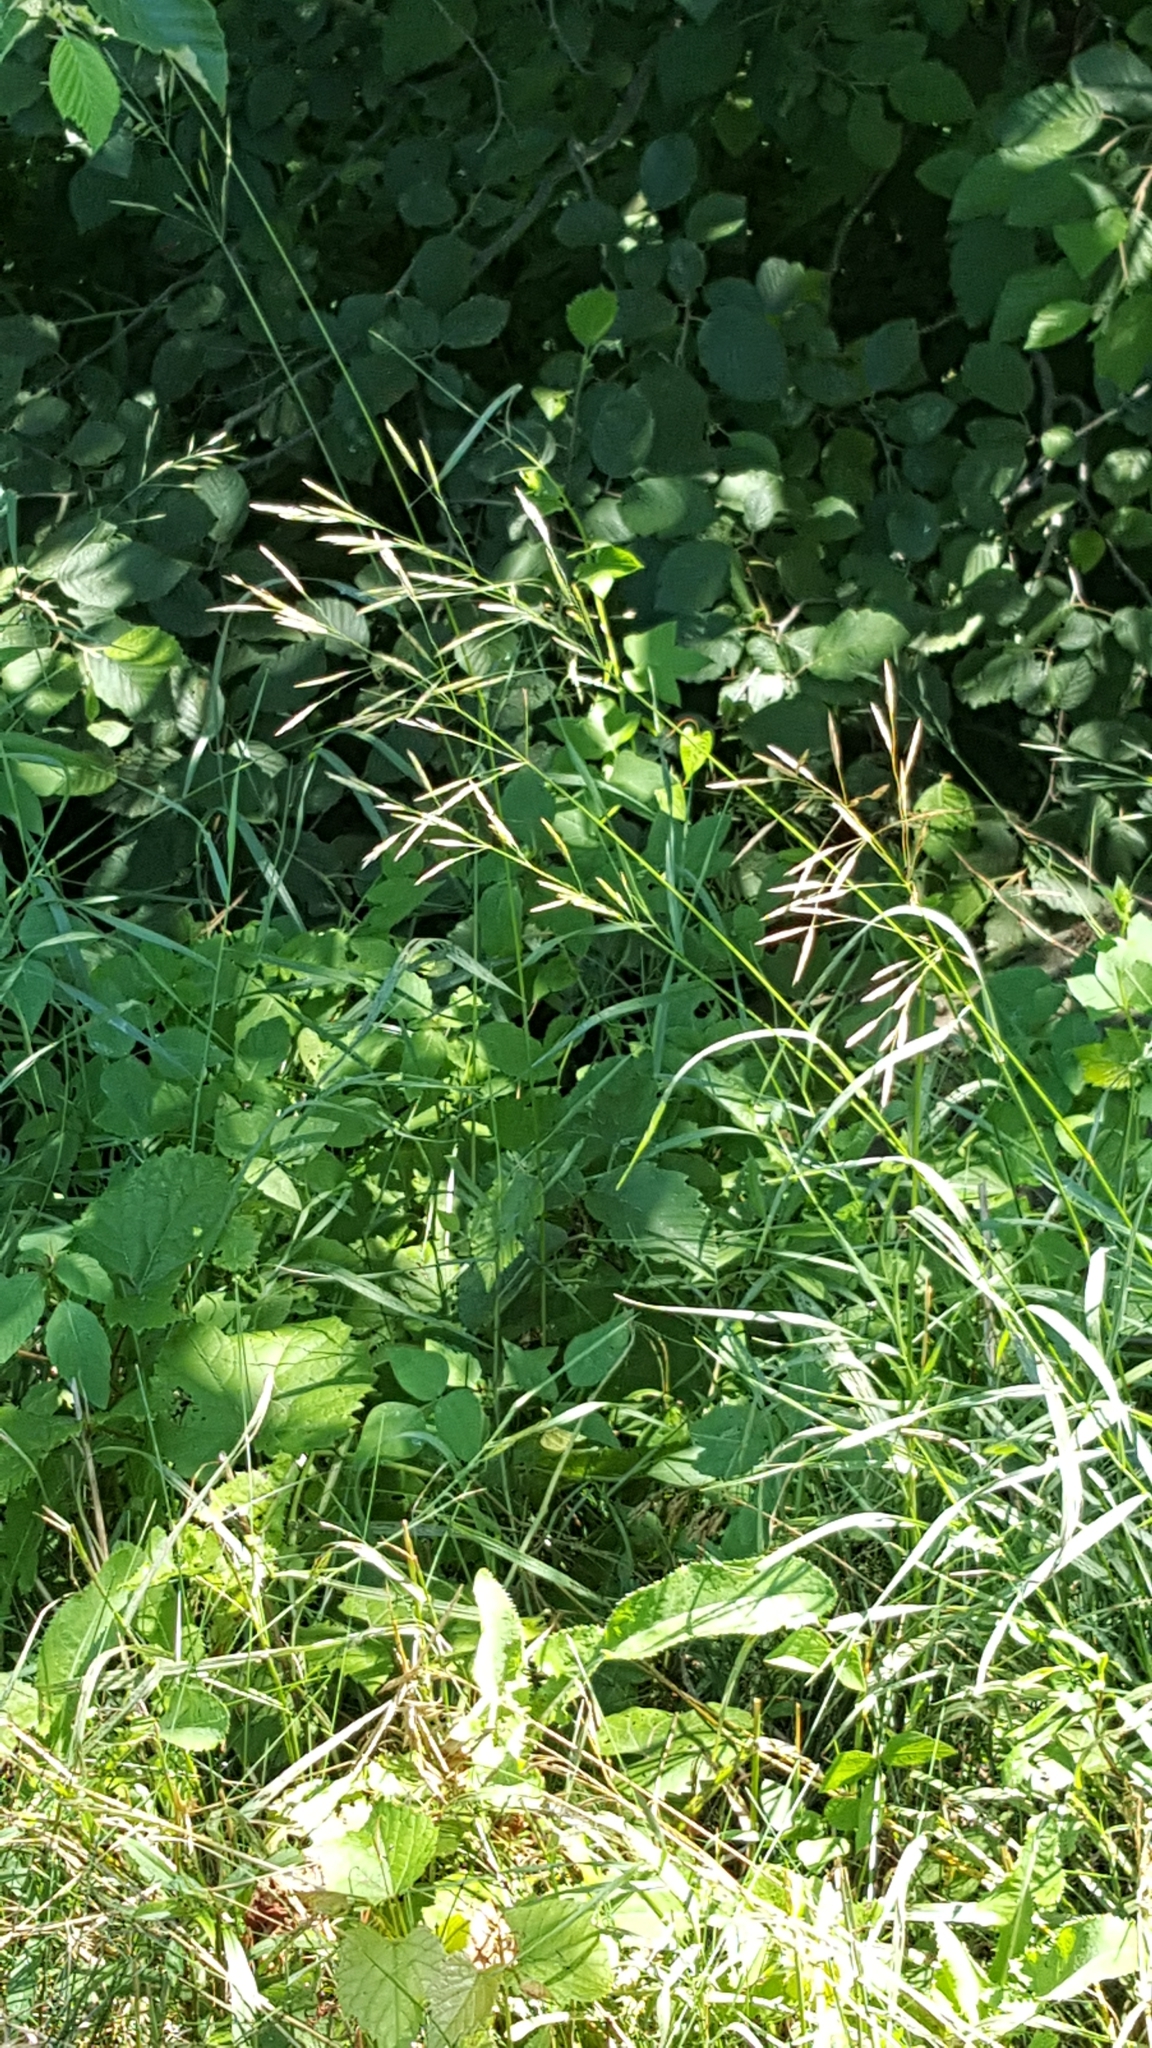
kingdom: Plantae
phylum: Tracheophyta
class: Liliopsida
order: Poales
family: Poaceae
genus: Bromus
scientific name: Bromus inermis
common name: Smooth brome
